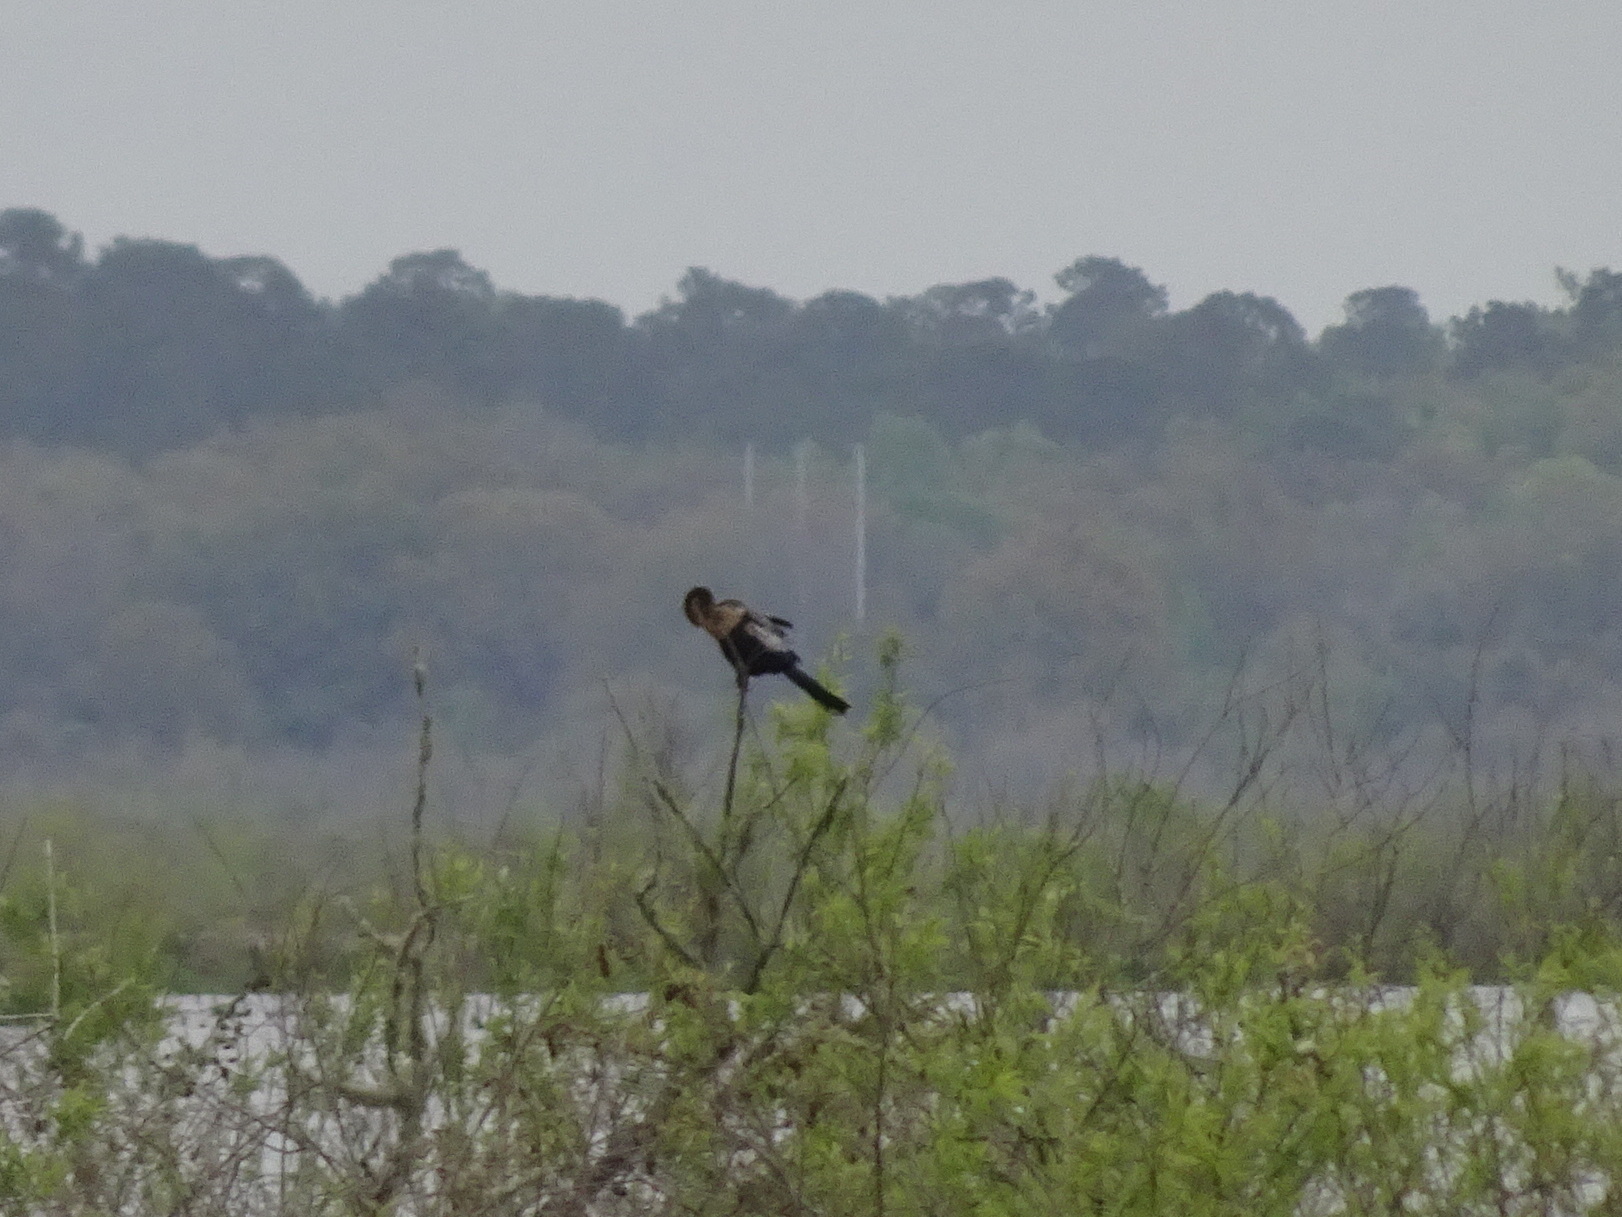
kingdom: Animalia
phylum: Chordata
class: Aves
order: Suliformes
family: Anhingidae
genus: Anhinga
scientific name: Anhinga anhinga
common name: Anhinga
